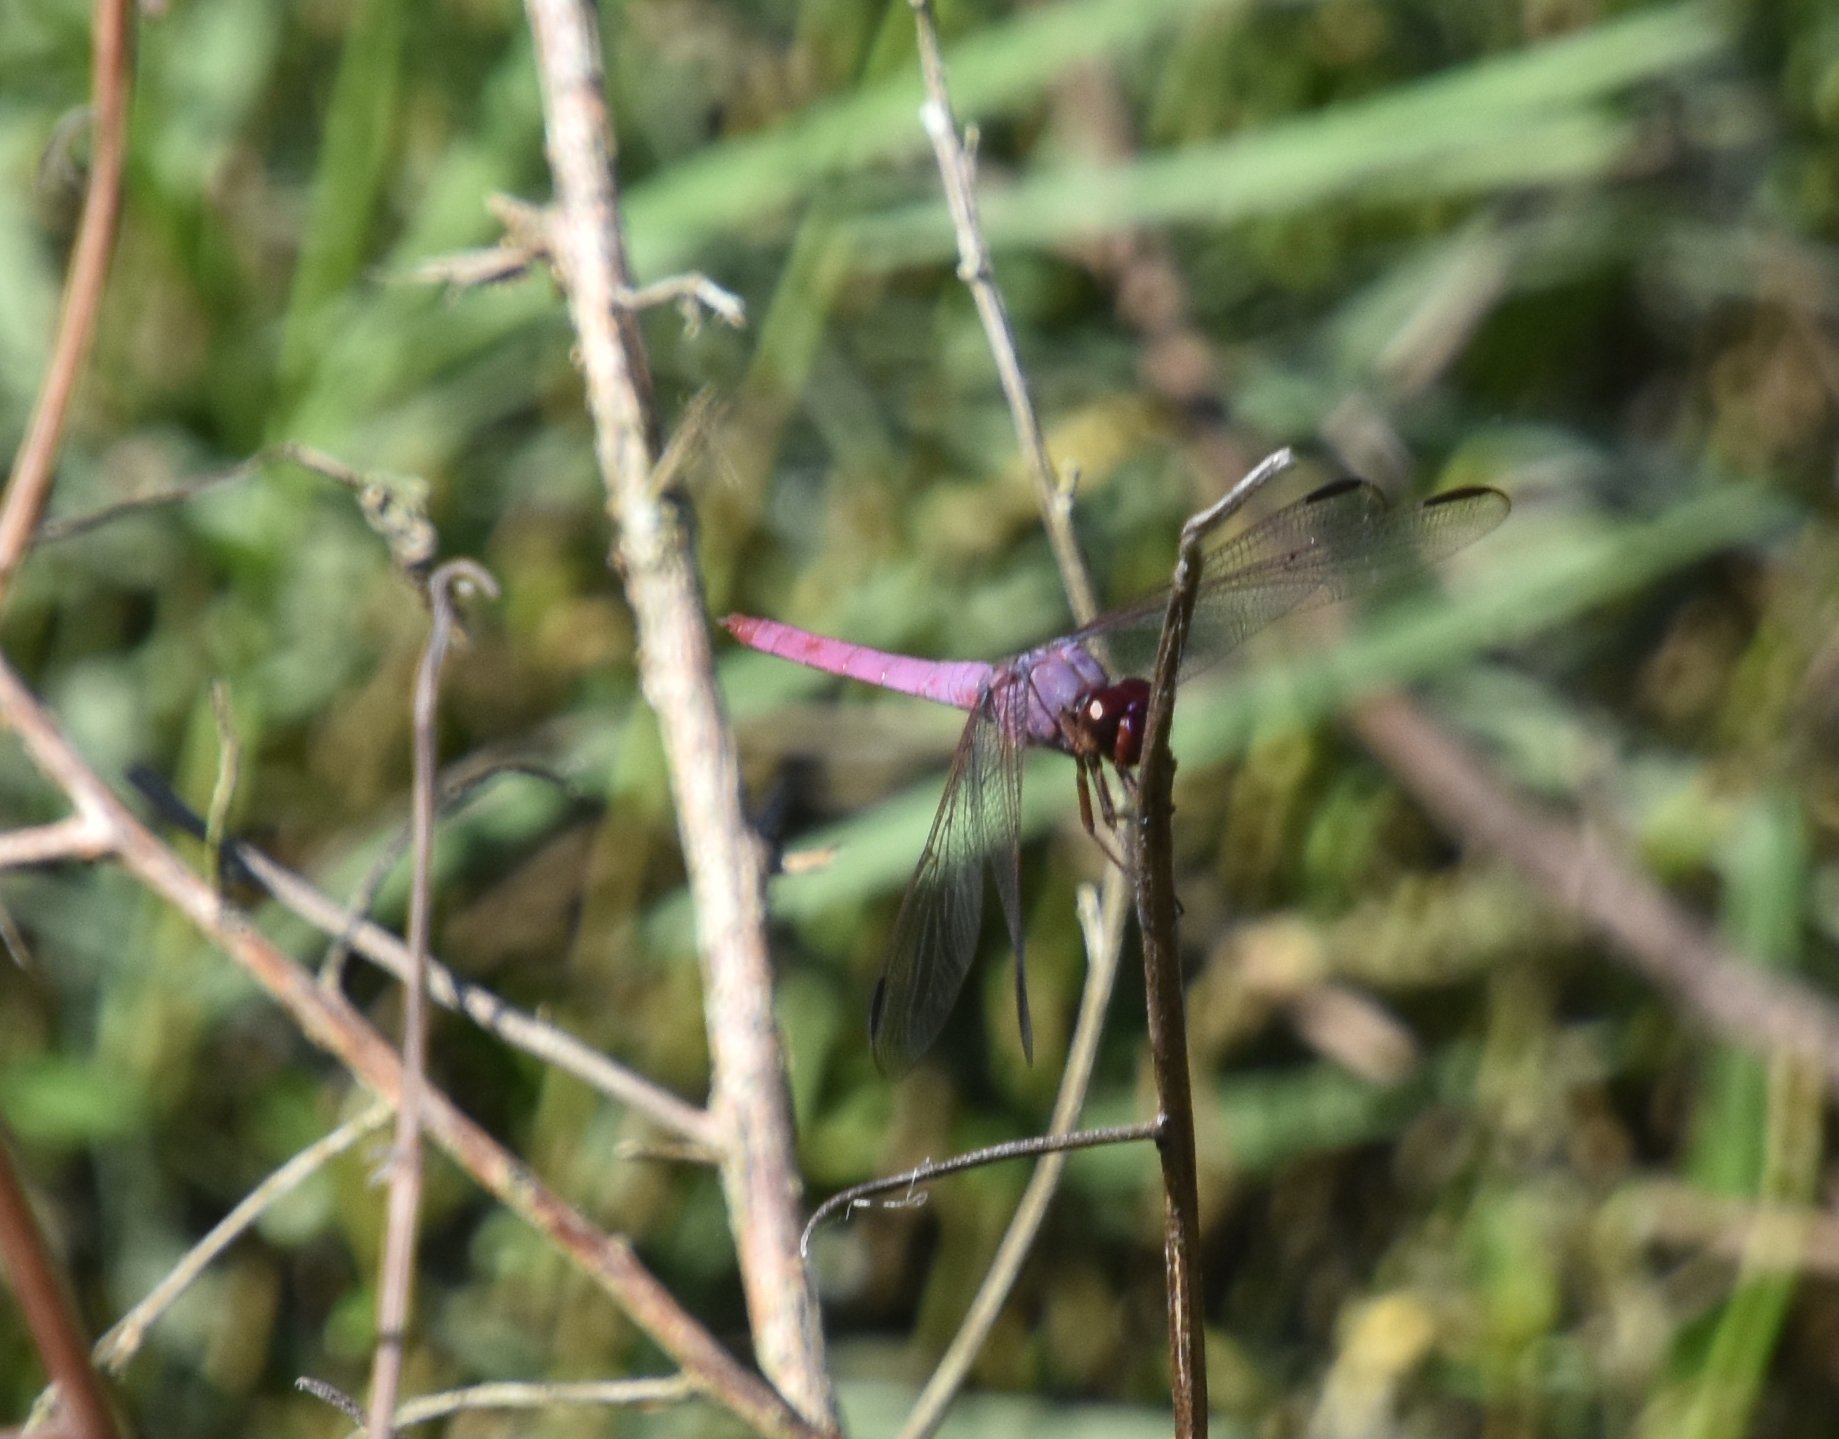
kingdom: Animalia
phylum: Arthropoda
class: Insecta
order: Odonata
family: Libellulidae
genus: Orthemis
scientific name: Orthemis ferruginea
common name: Roseate skimmer
